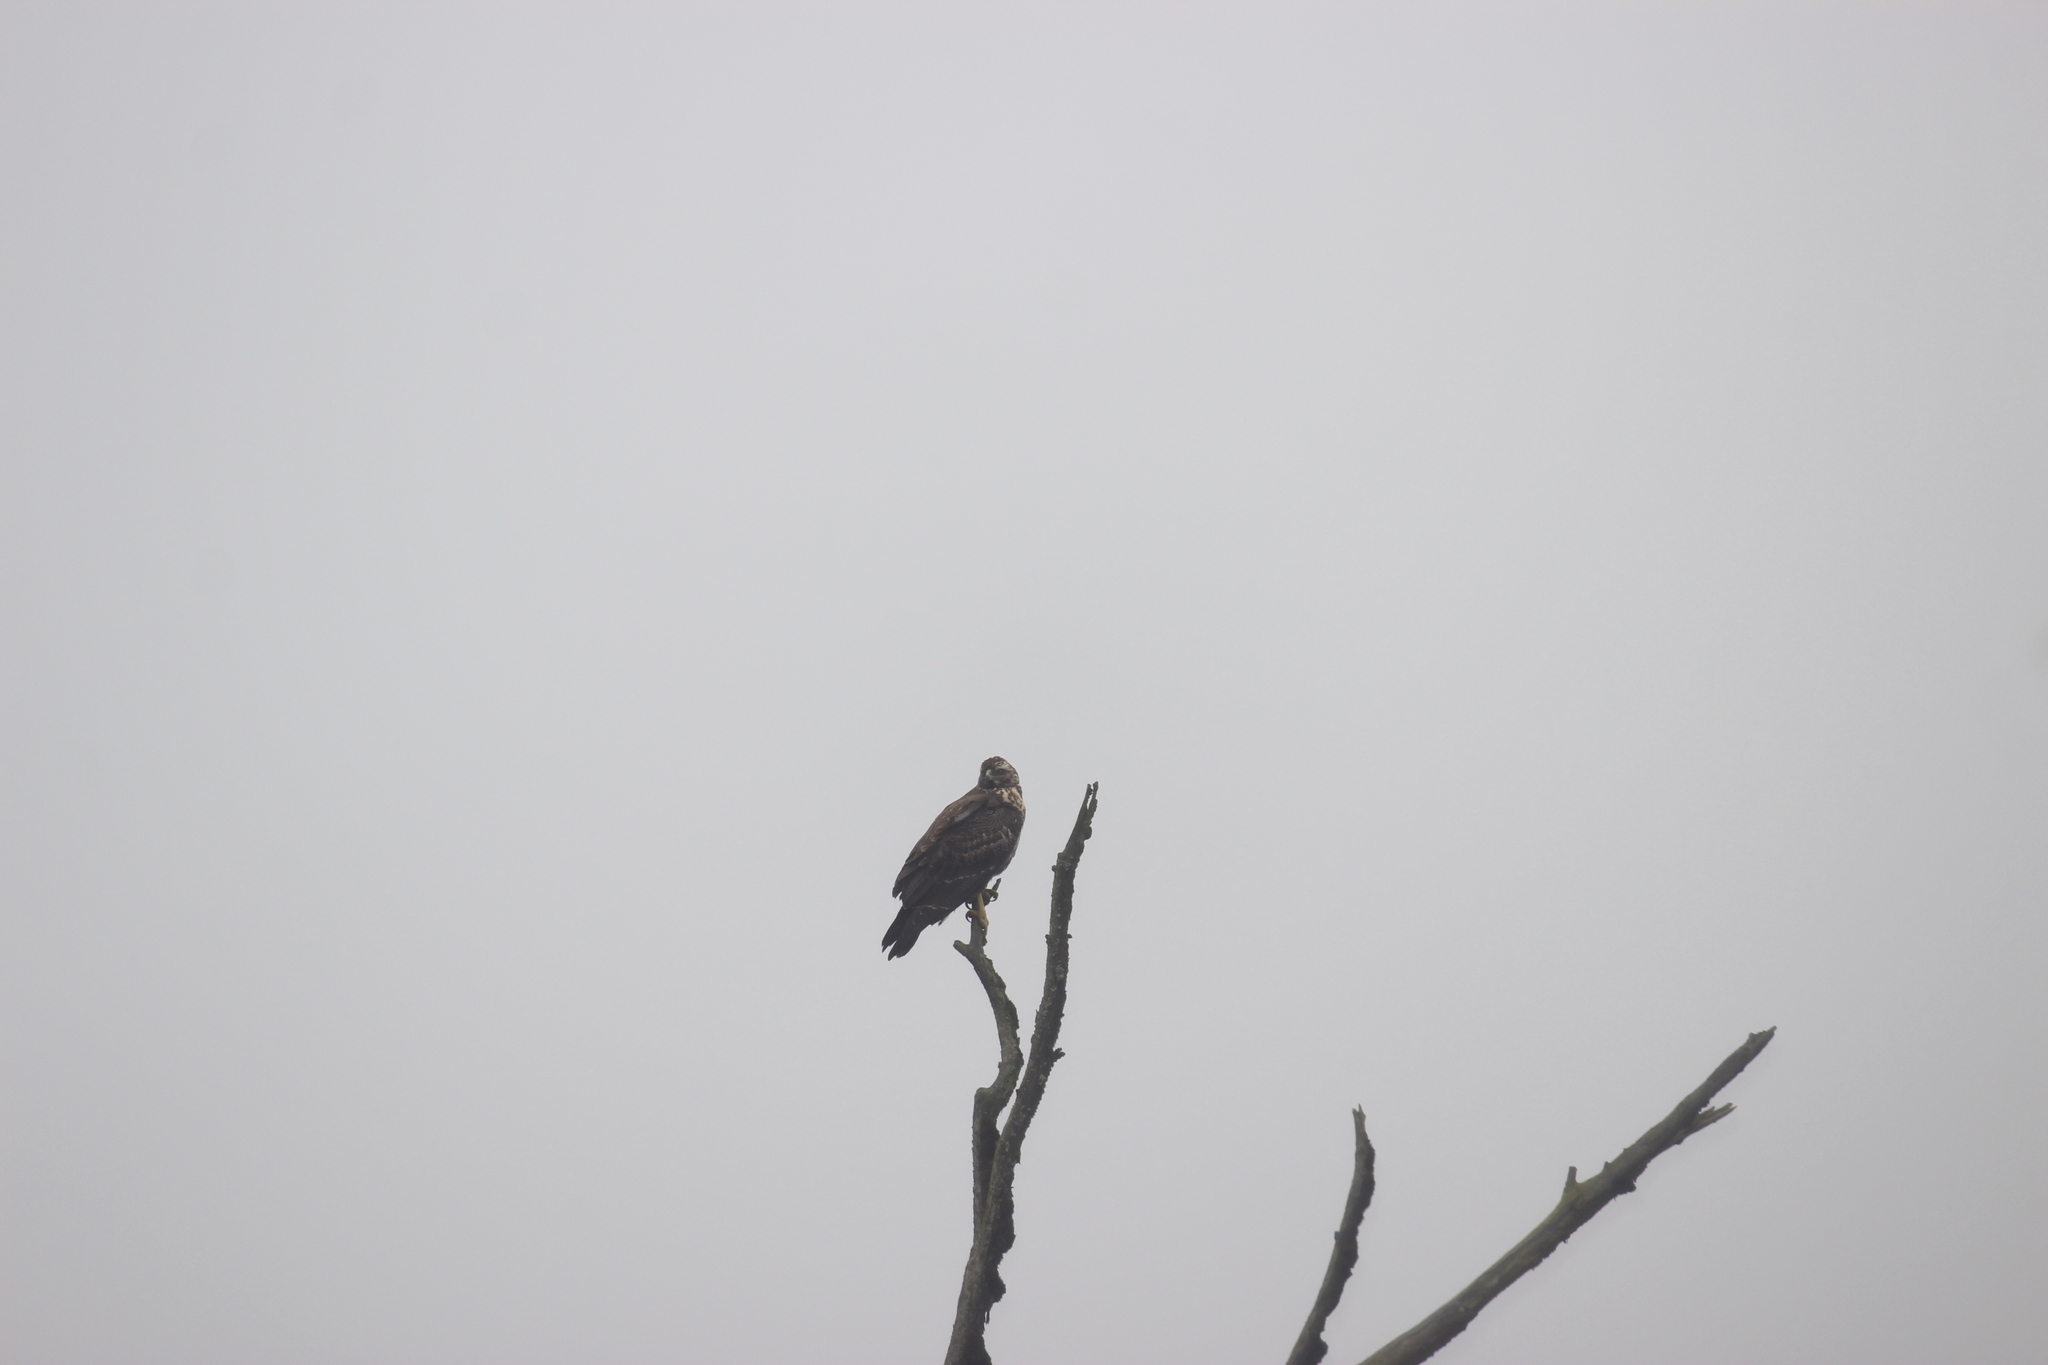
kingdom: Animalia
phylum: Chordata
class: Aves
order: Accipitriformes
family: Accipitridae
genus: Geranoaetus
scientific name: Geranoaetus melanoleucus
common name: Black-chested buzzard-eagle
